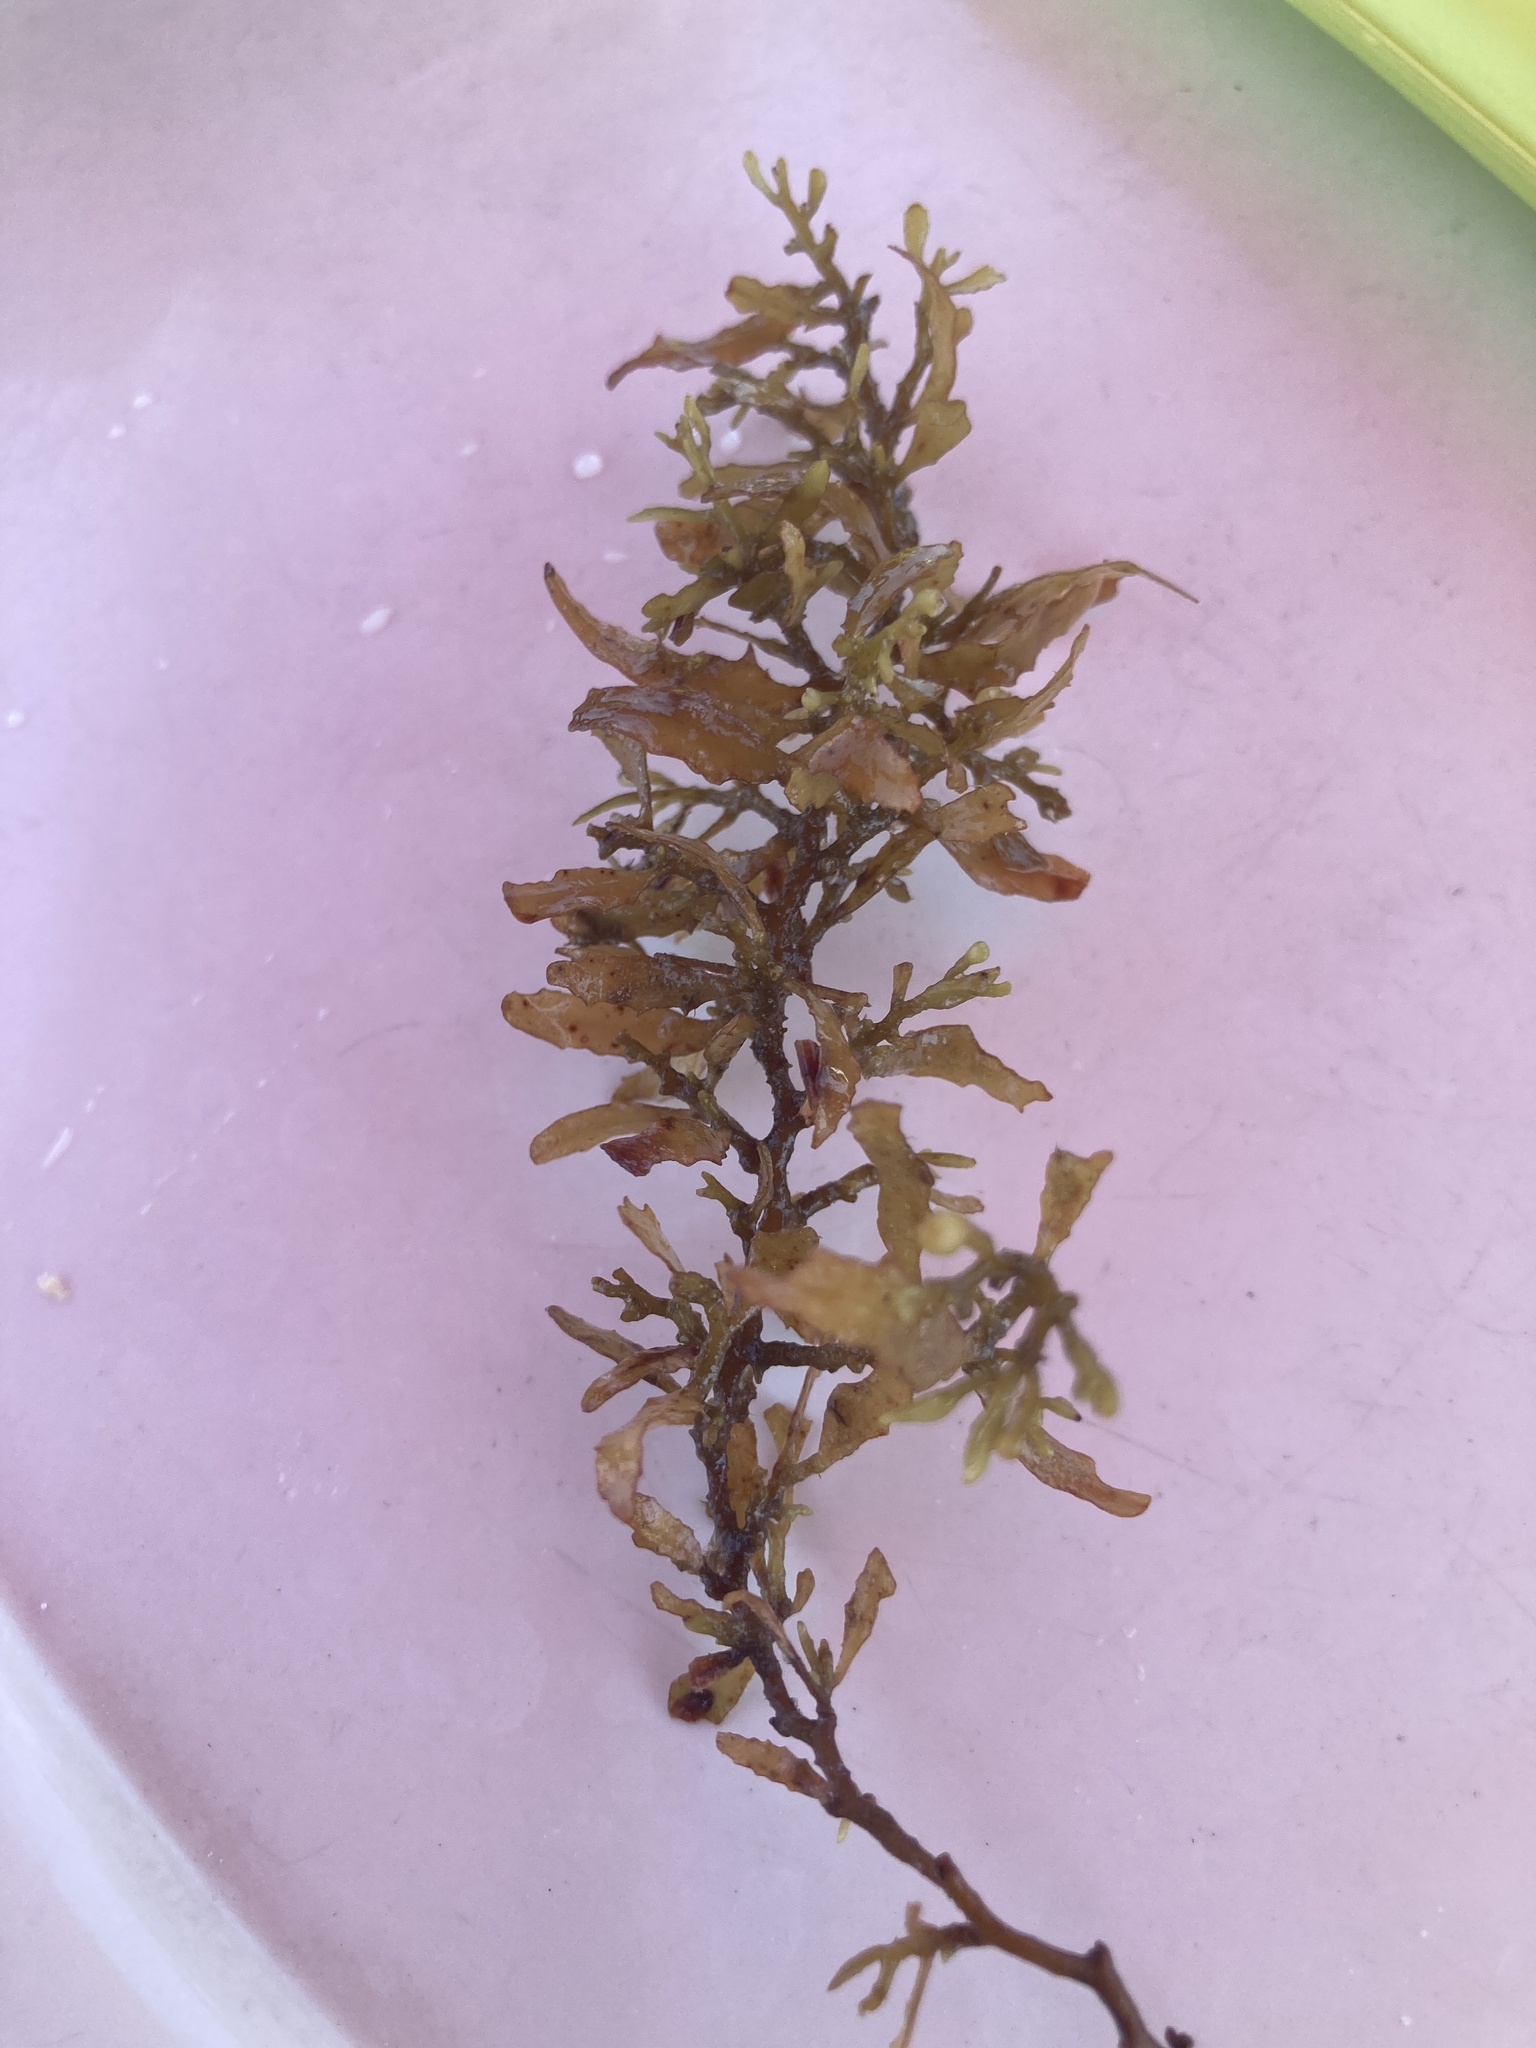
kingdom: Chromista
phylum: Ochrophyta
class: Phaeophyceae
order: Fucales
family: Sargassaceae
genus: Sargassum
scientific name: Sargassum fluitans
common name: Sargassum seaweed
